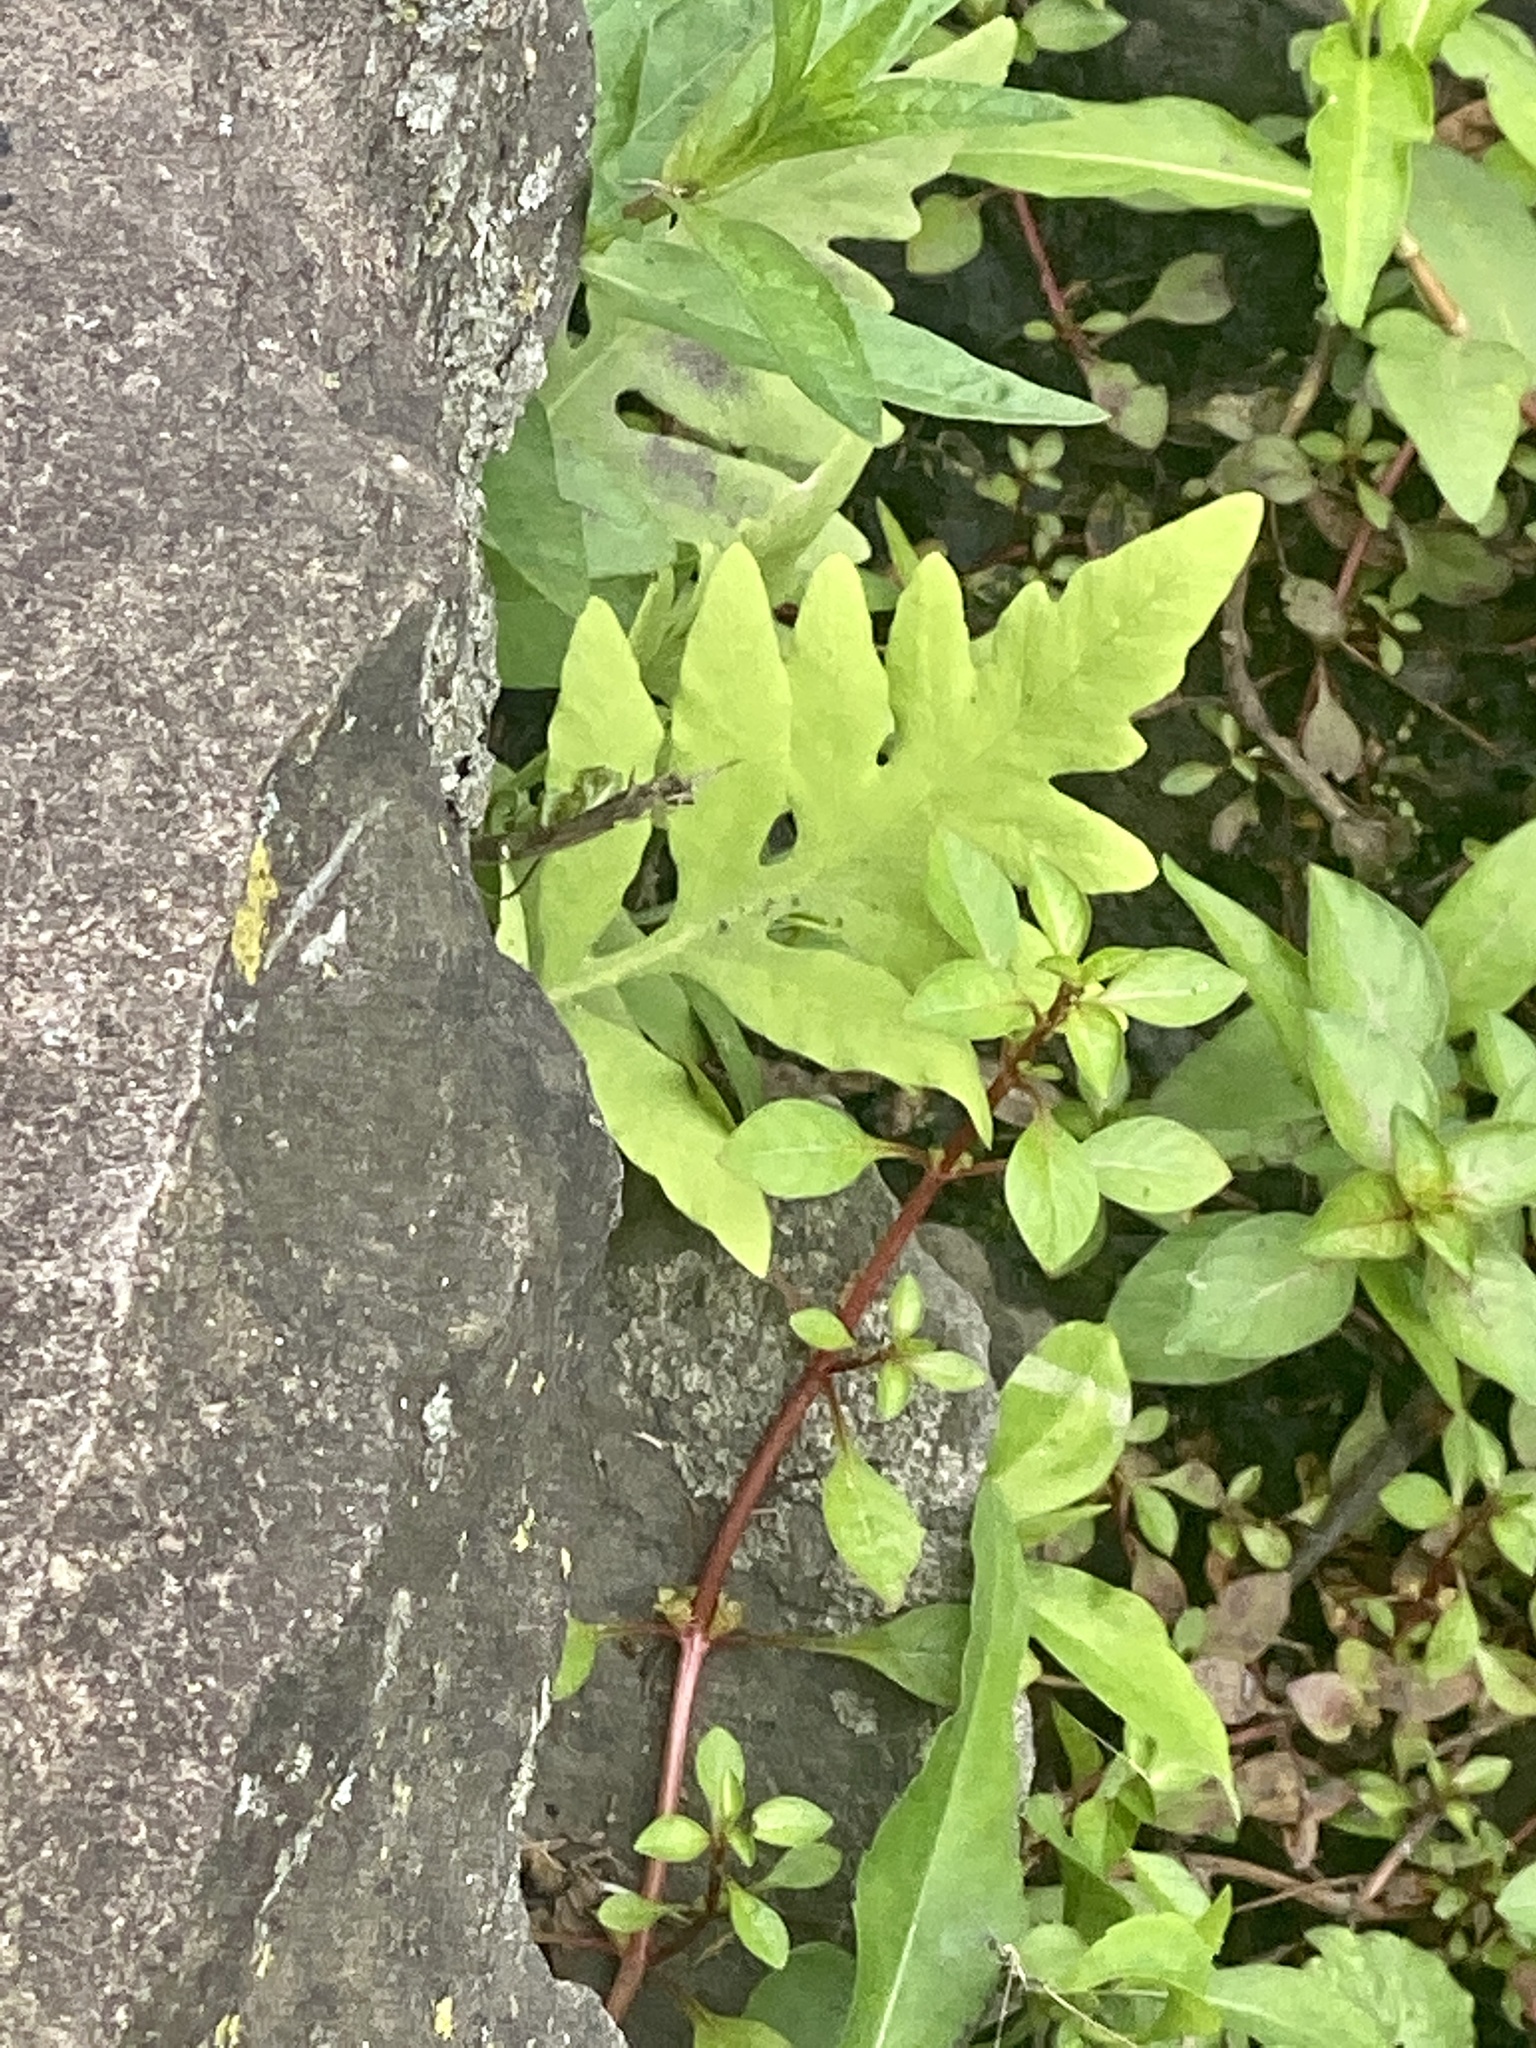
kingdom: Plantae
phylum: Tracheophyta
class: Polypodiopsida
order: Polypodiales
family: Onocleaceae
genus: Onoclea
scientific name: Onoclea sensibilis
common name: Sensitive fern
